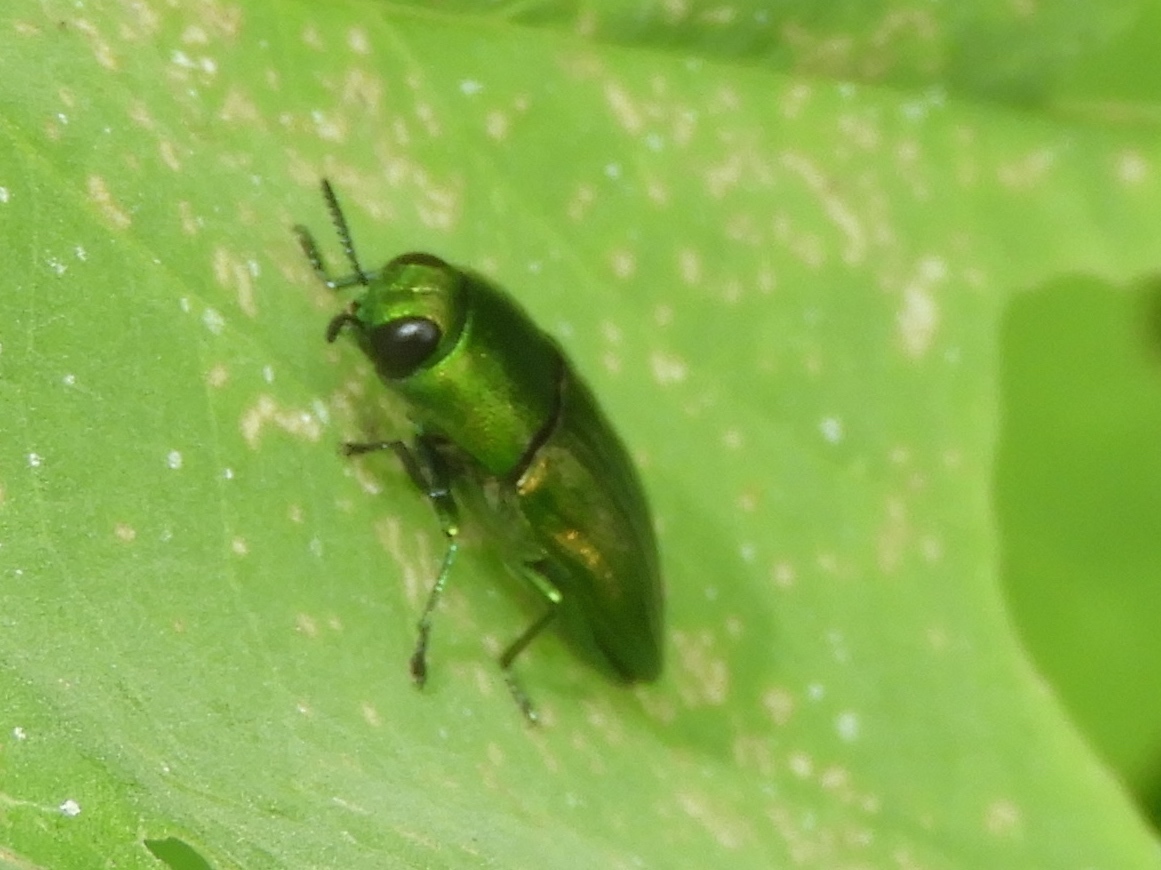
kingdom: Animalia
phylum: Arthropoda
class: Insecta
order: Coleoptera
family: Buprestidae
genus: Agaeocera
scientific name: Agaeocera scintillans
